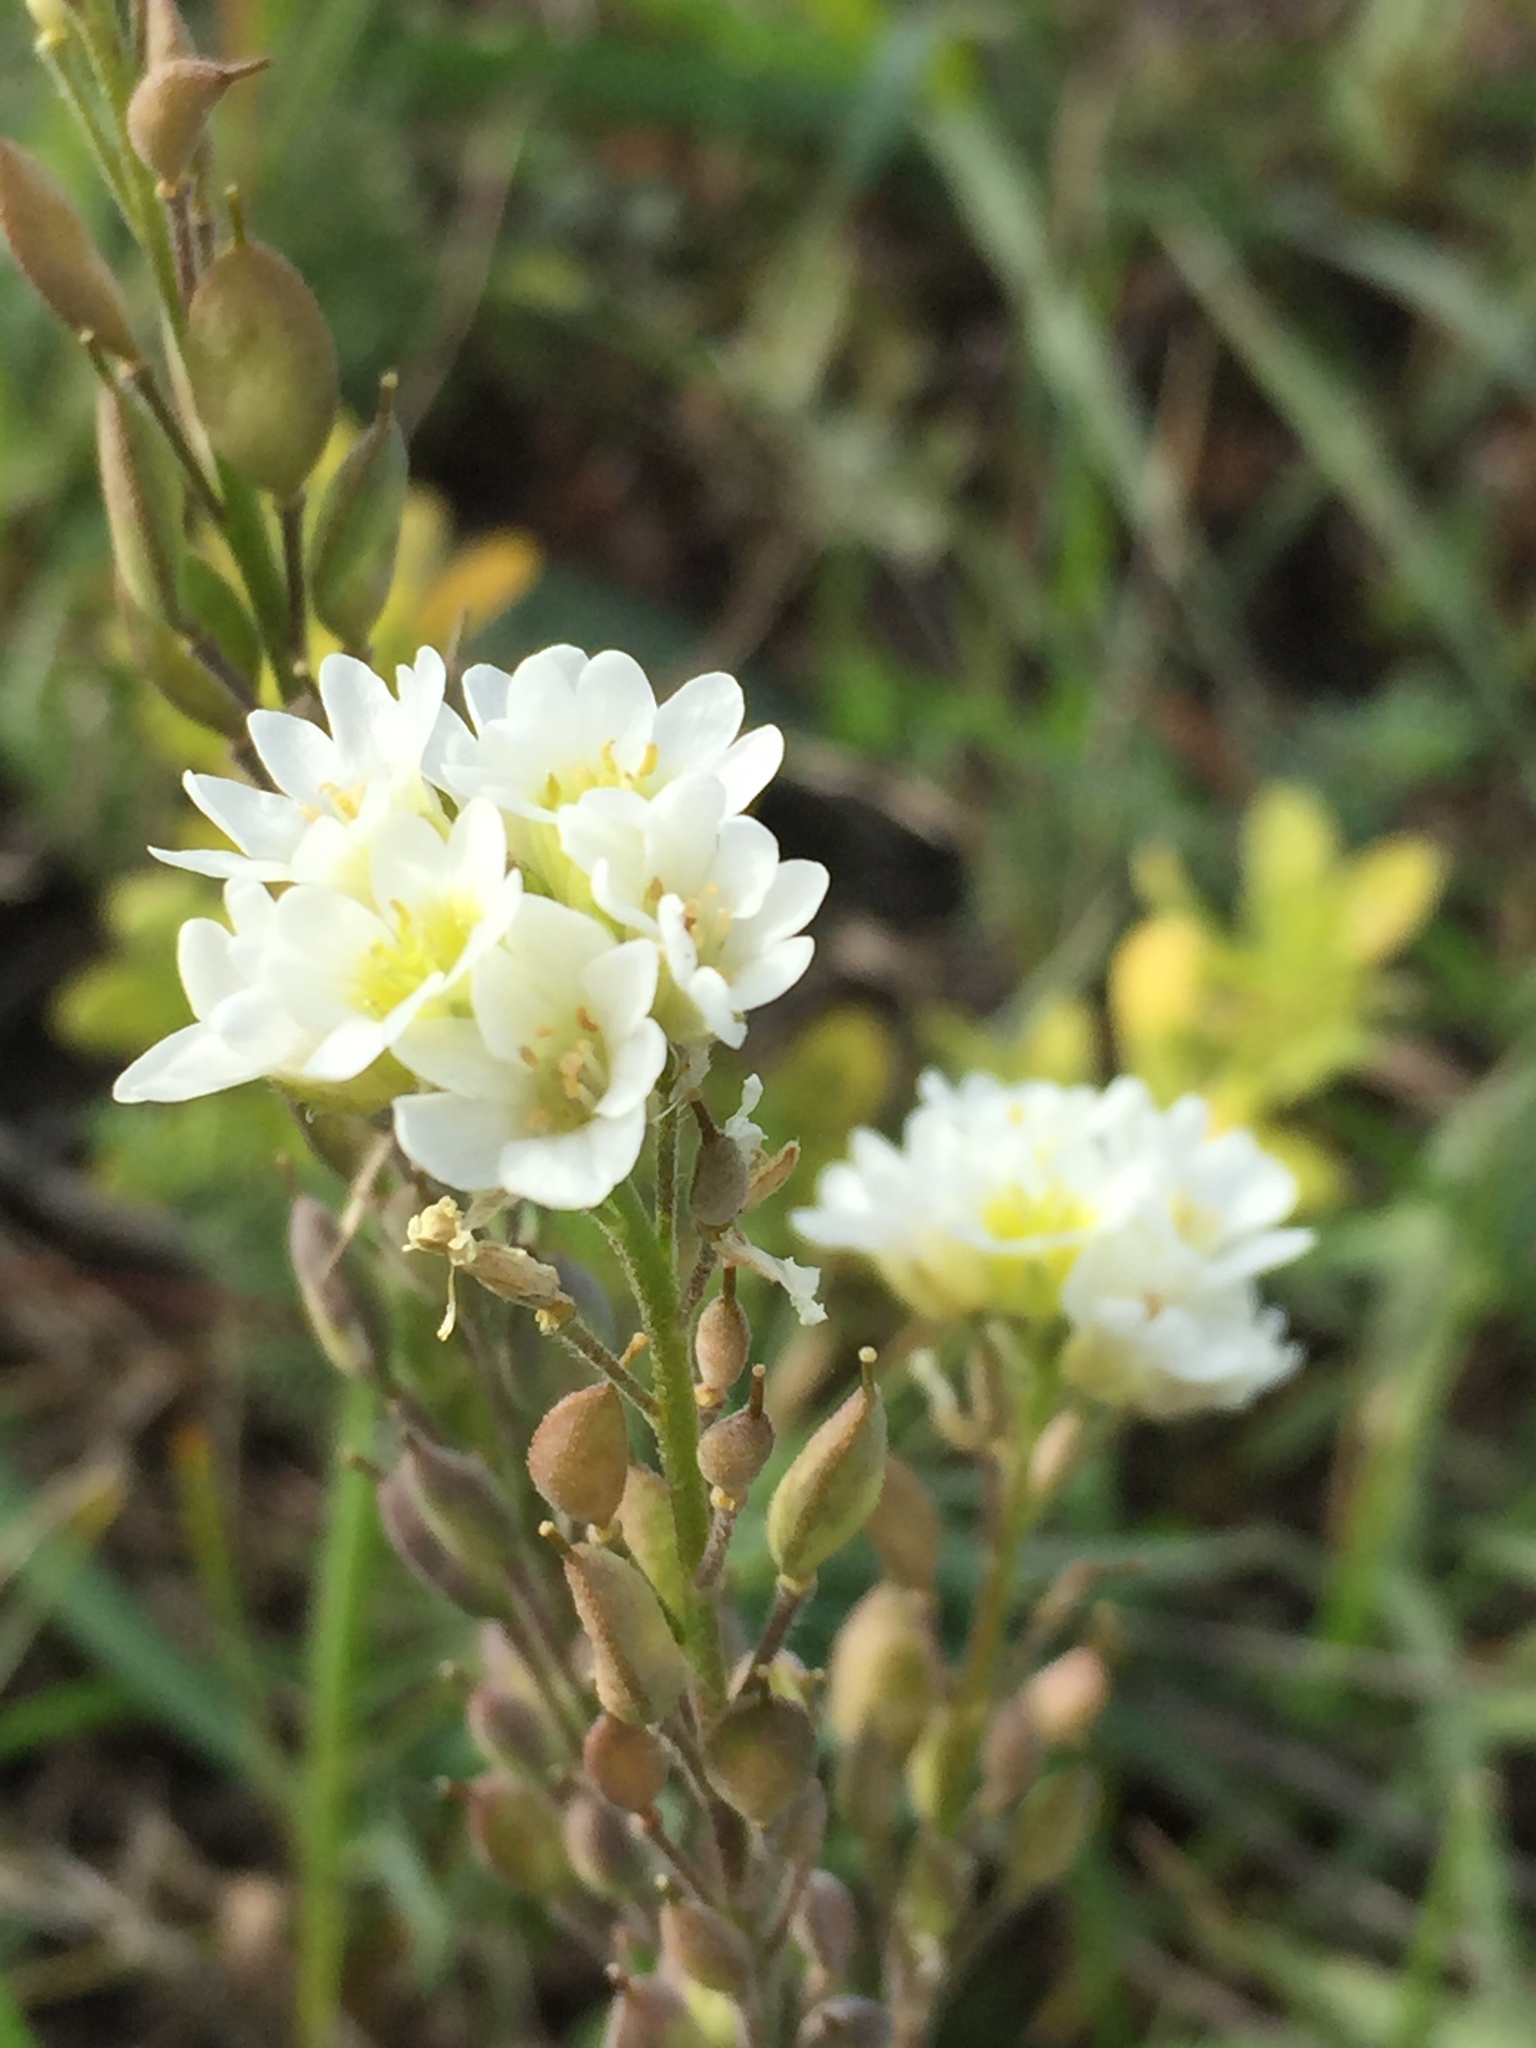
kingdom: Plantae
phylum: Tracheophyta
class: Magnoliopsida
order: Brassicales
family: Brassicaceae
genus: Berteroa
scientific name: Berteroa incana
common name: Hoary alison
